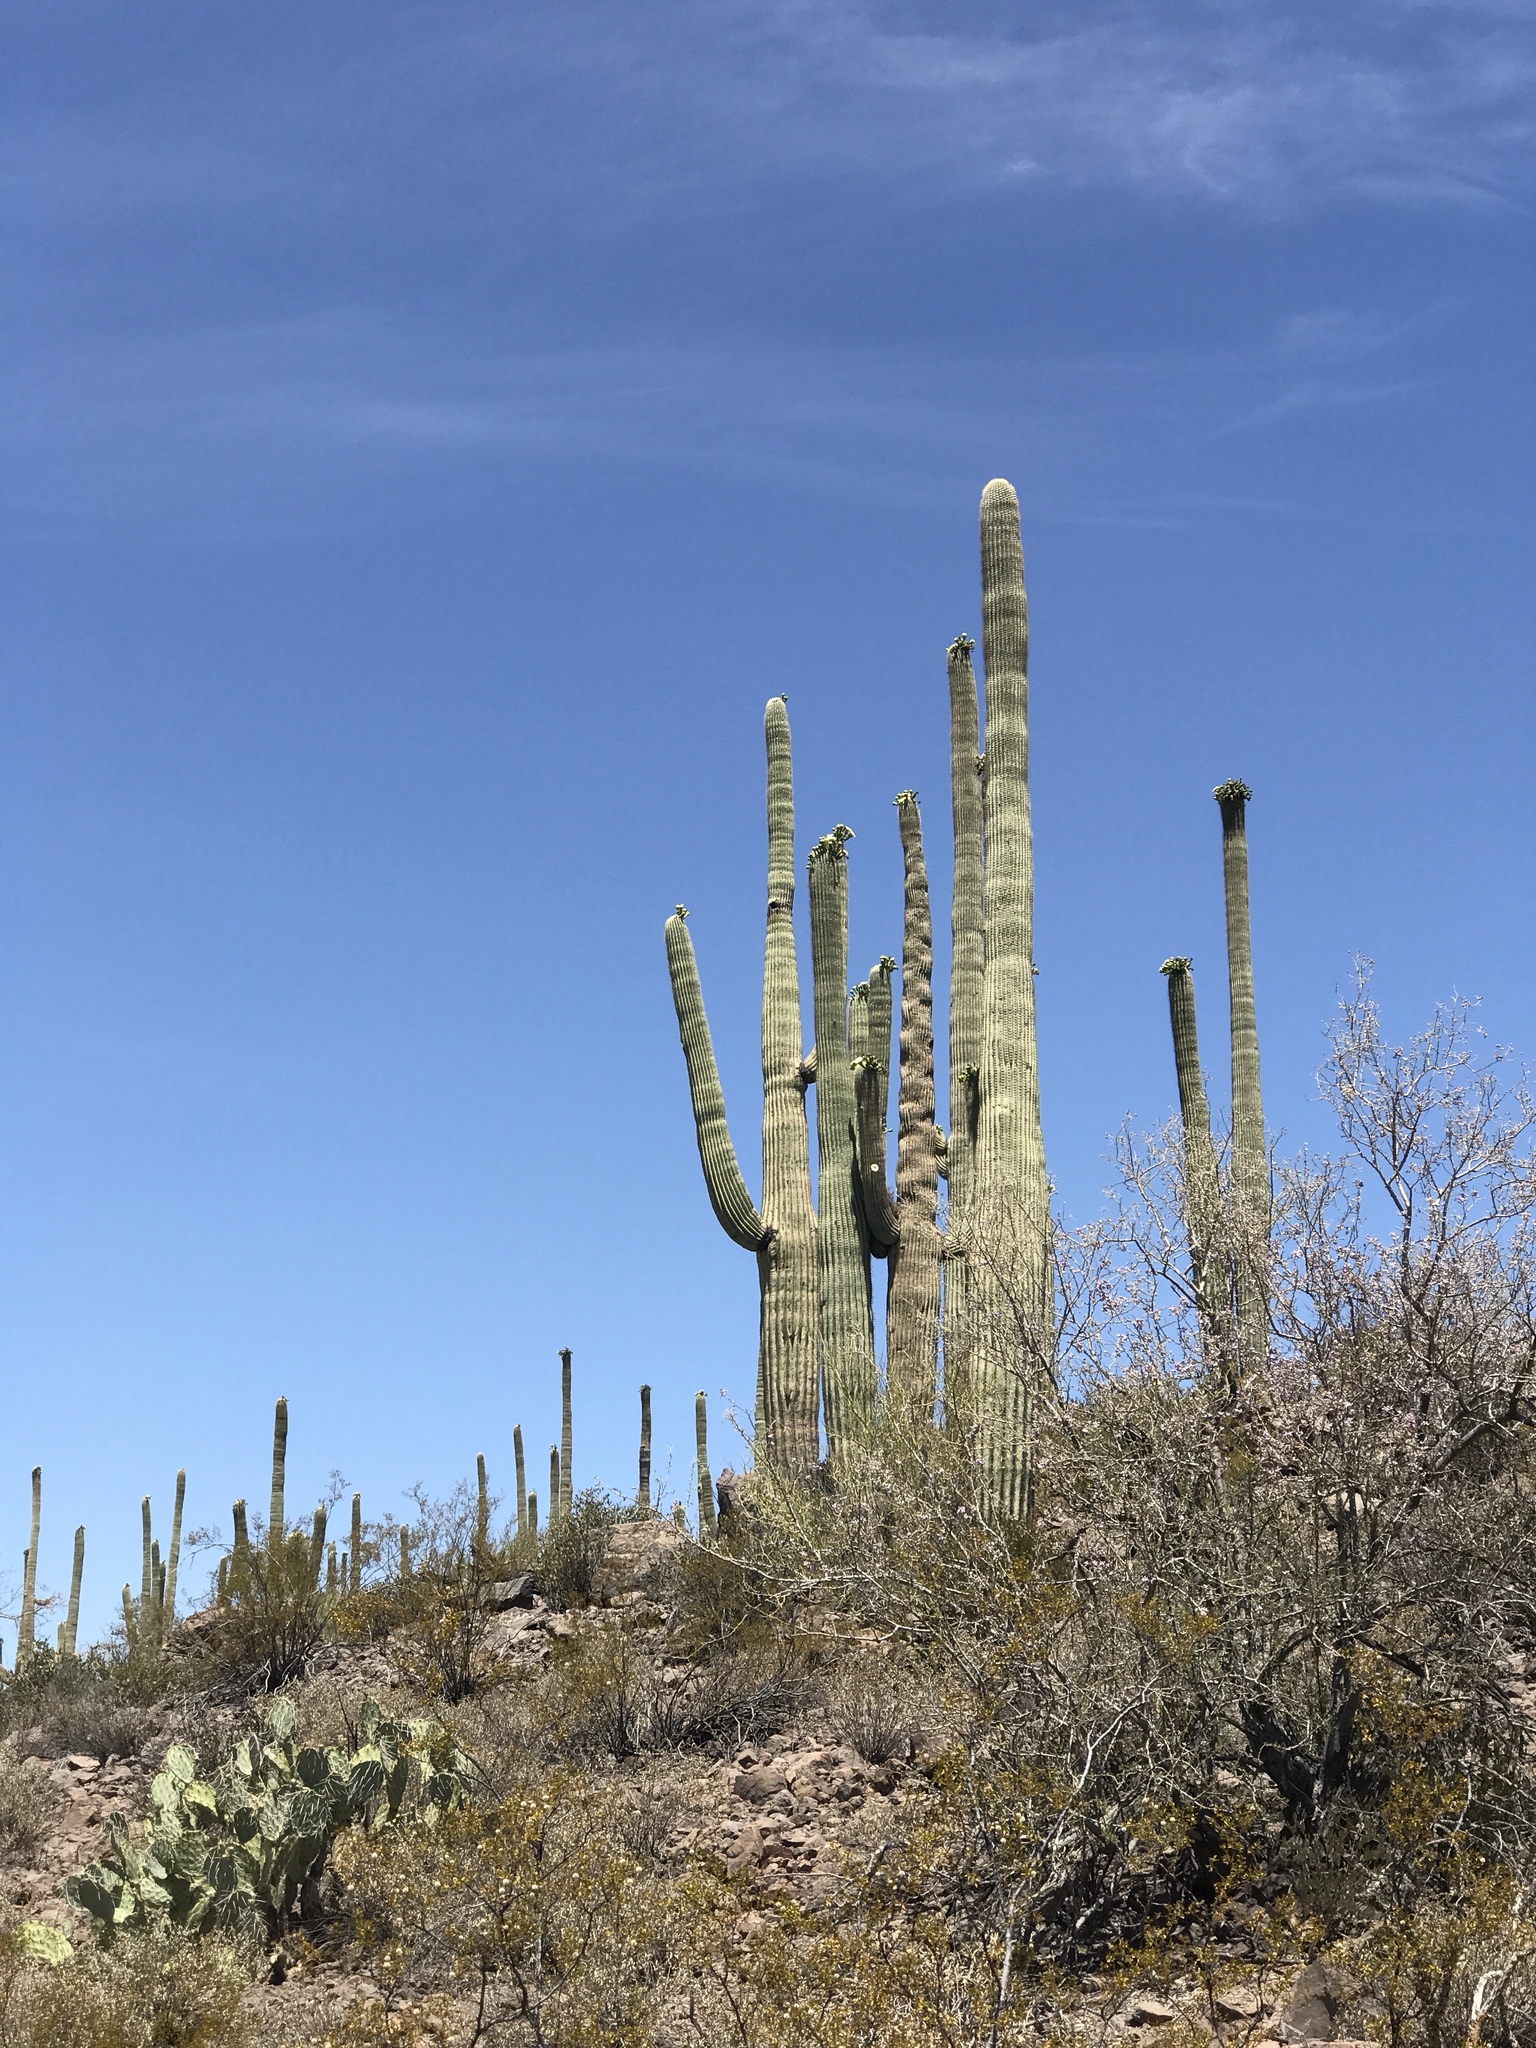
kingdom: Plantae
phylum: Tracheophyta
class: Magnoliopsida
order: Caryophyllales
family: Cactaceae
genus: Carnegiea
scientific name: Carnegiea gigantea
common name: Saguaro
